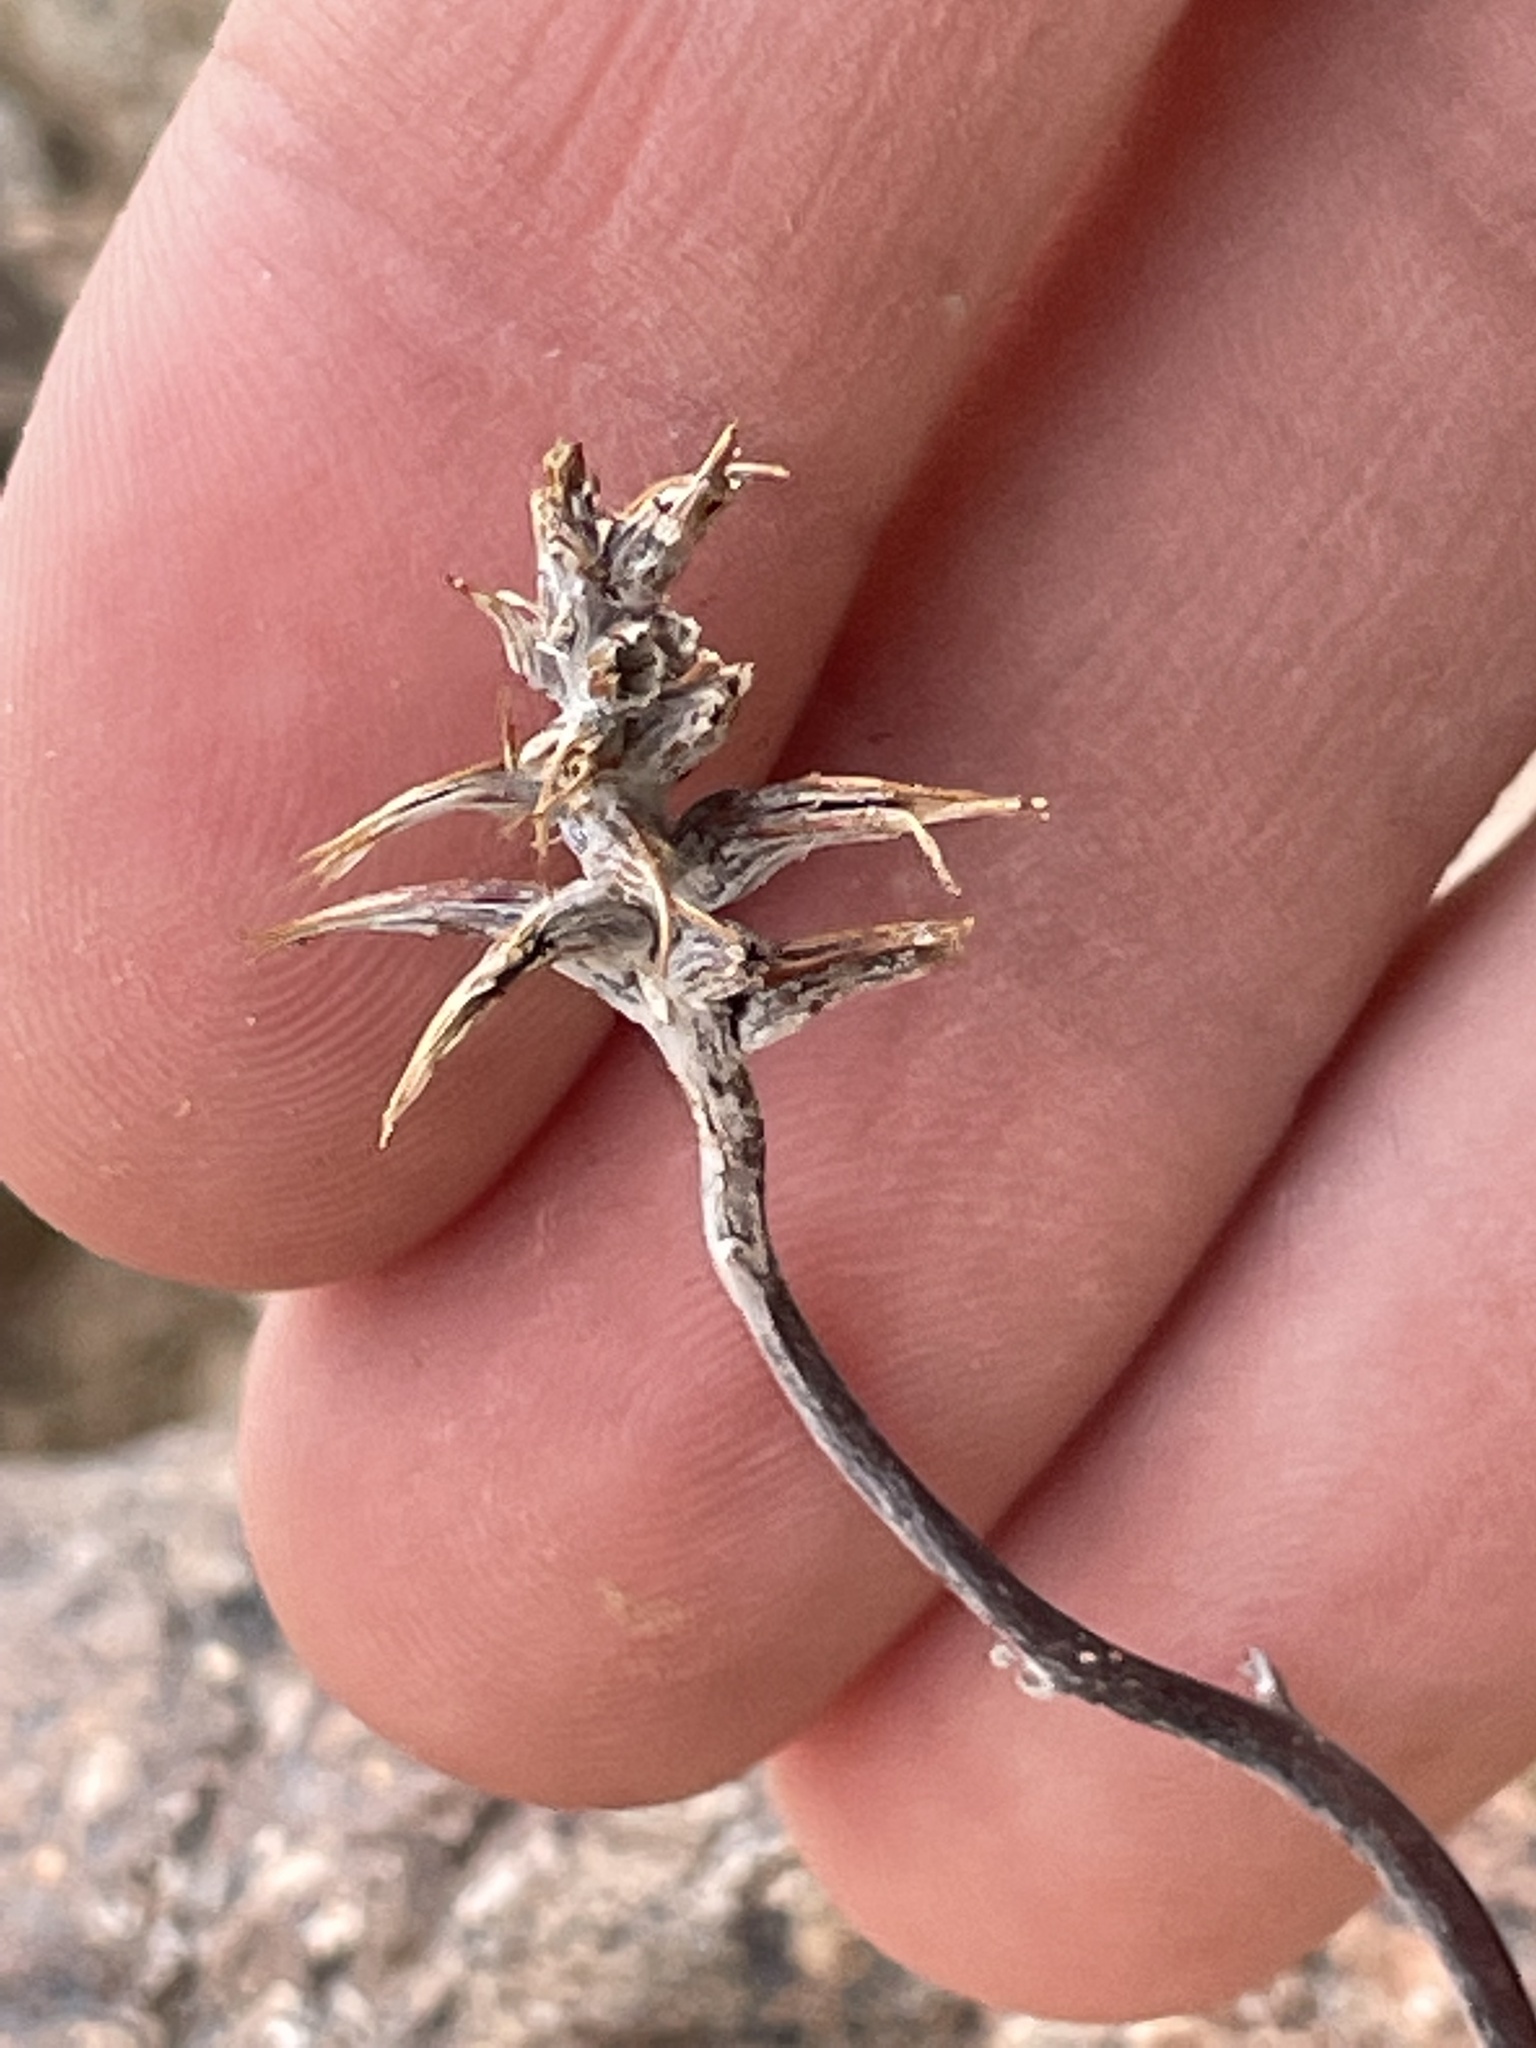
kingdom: Plantae
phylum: Tracheophyta
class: Magnoliopsida
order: Myrtales
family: Onagraceae
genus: Eremothera
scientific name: Eremothera boothii
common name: Booth's evening primrose
